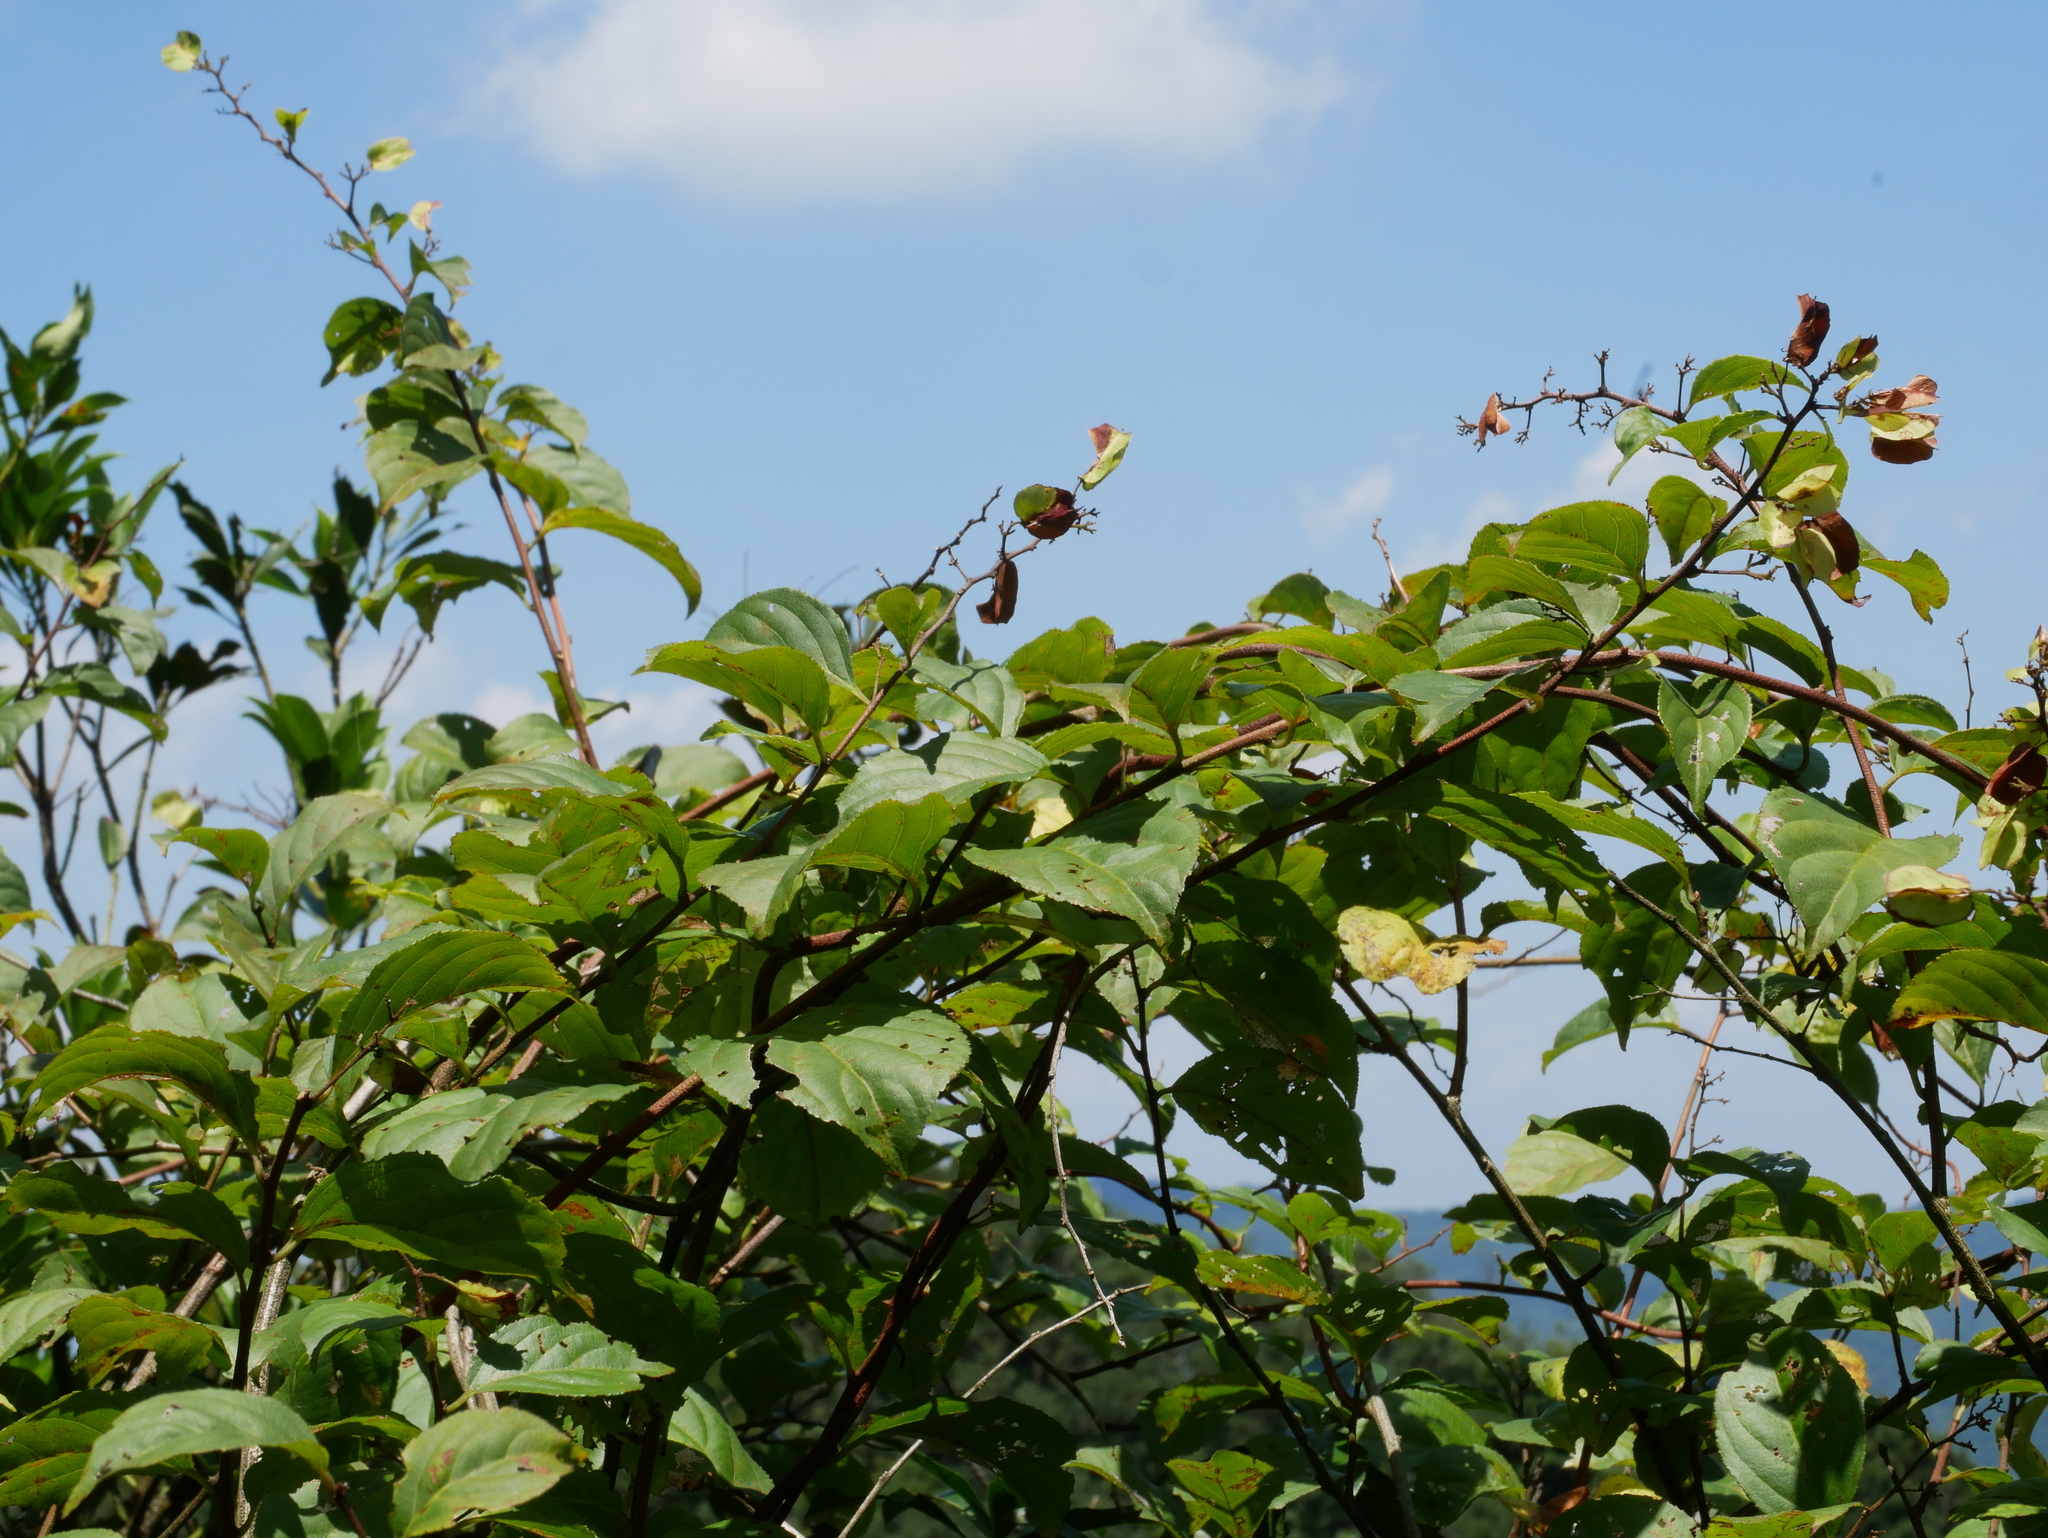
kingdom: Plantae
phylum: Tracheophyta
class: Magnoliopsida
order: Celastrales
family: Celastraceae
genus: Tripterygium
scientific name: Tripterygium wilfordii
